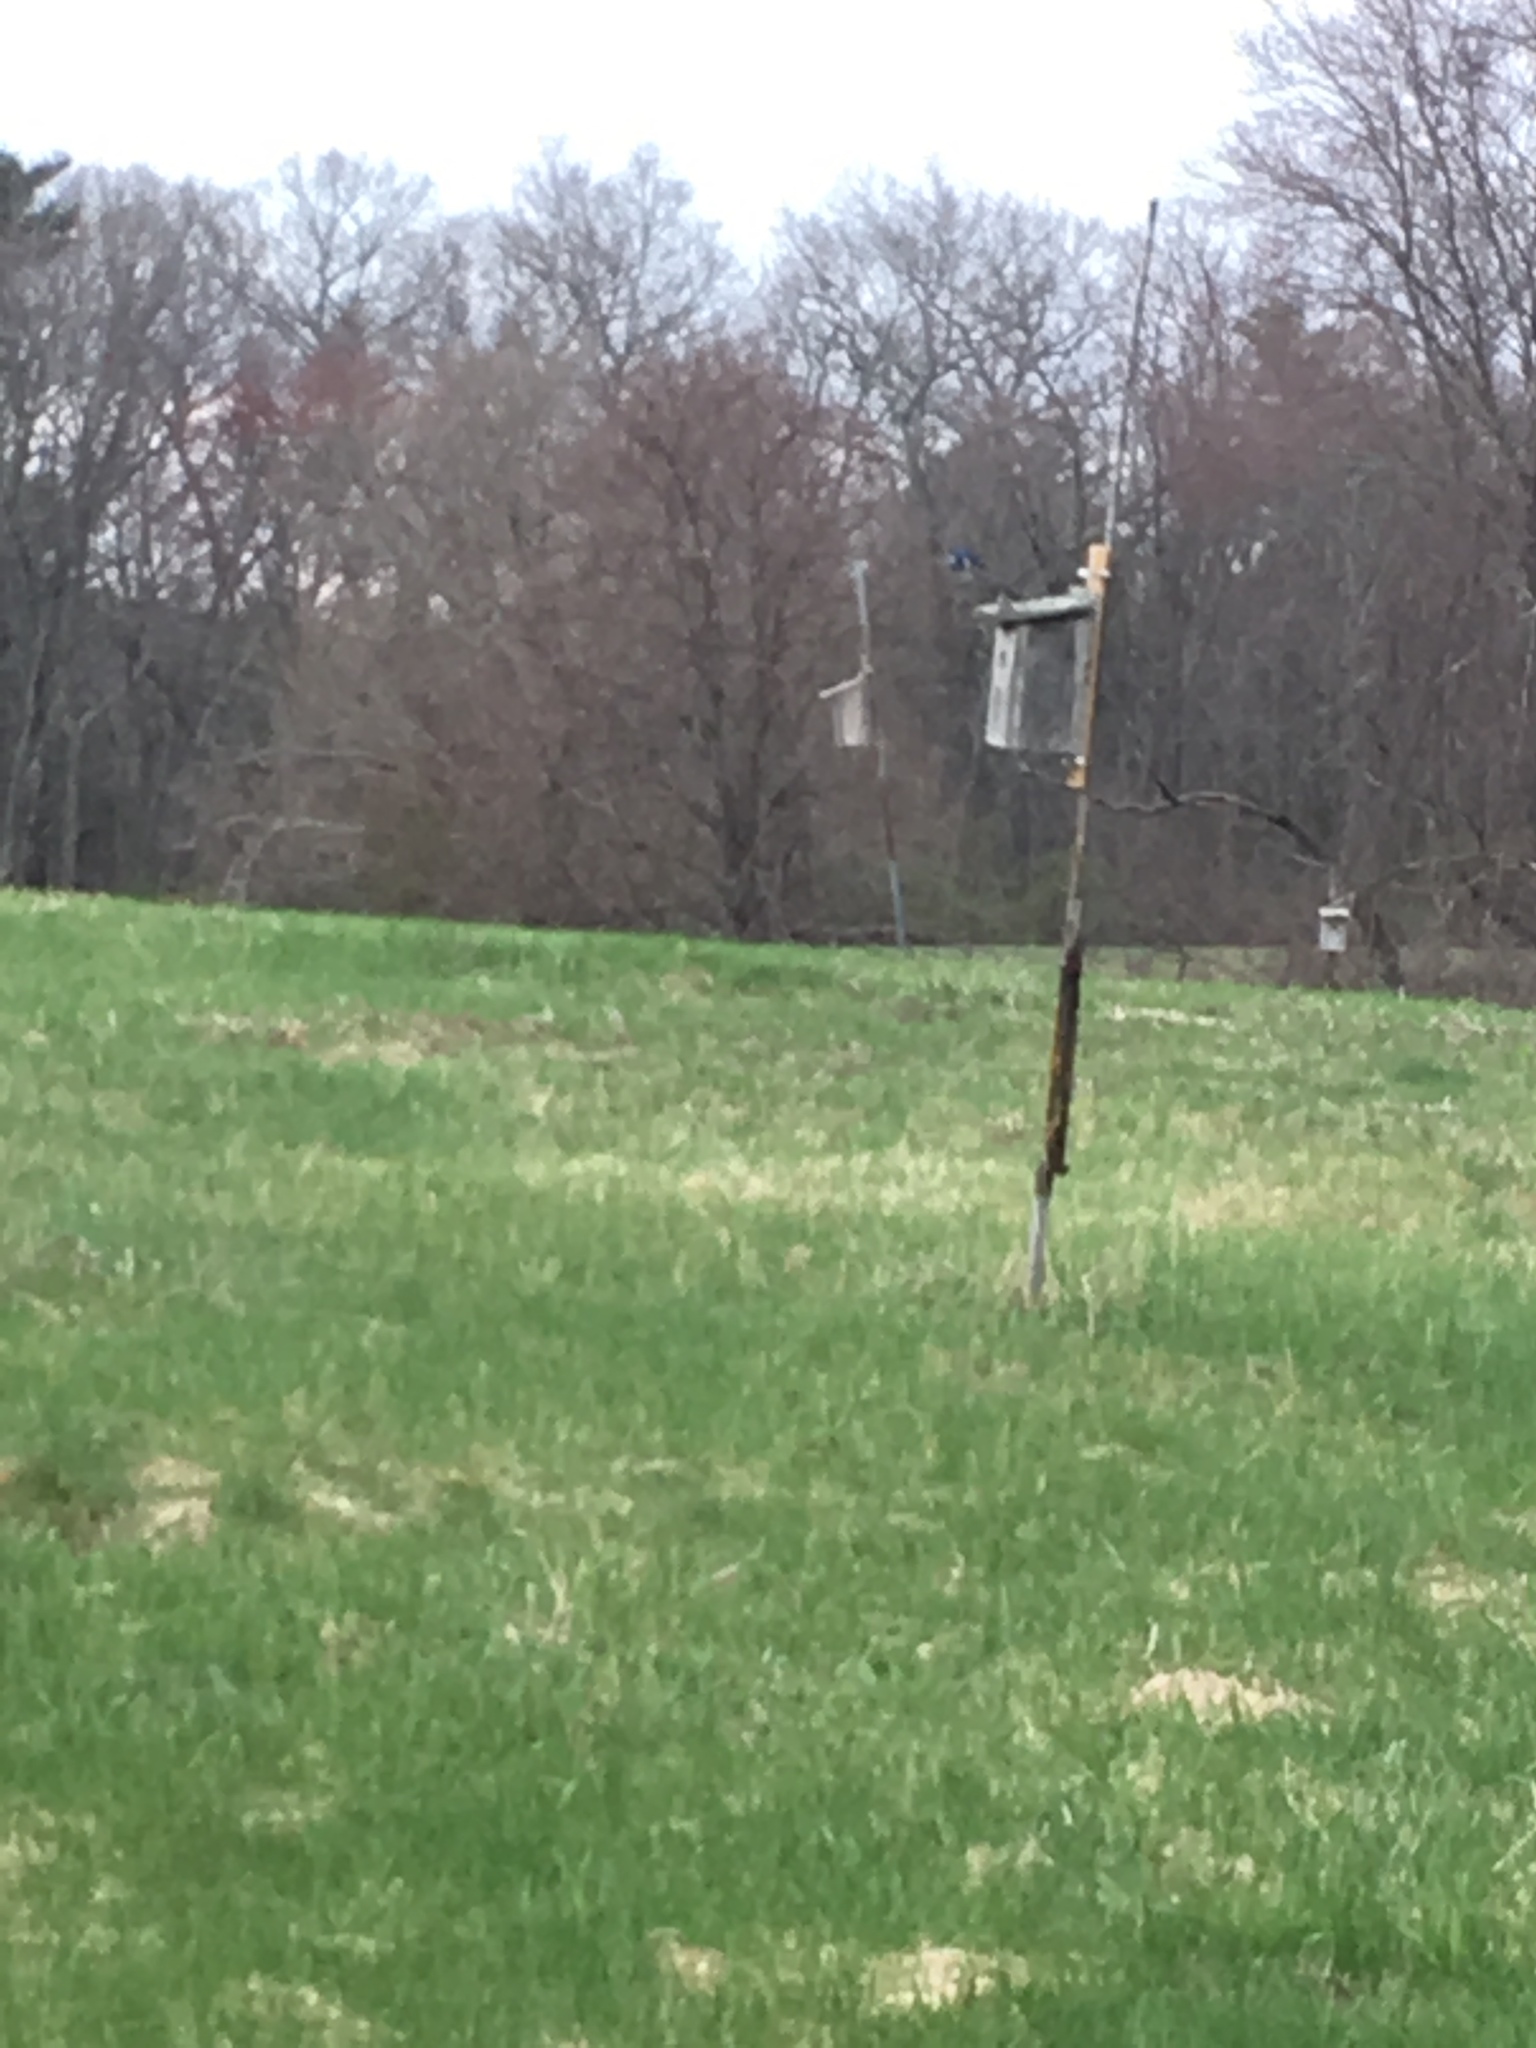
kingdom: Animalia
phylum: Chordata
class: Aves
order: Passeriformes
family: Hirundinidae
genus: Tachycineta
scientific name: Tachycineta bicolor
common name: Tree swallow
